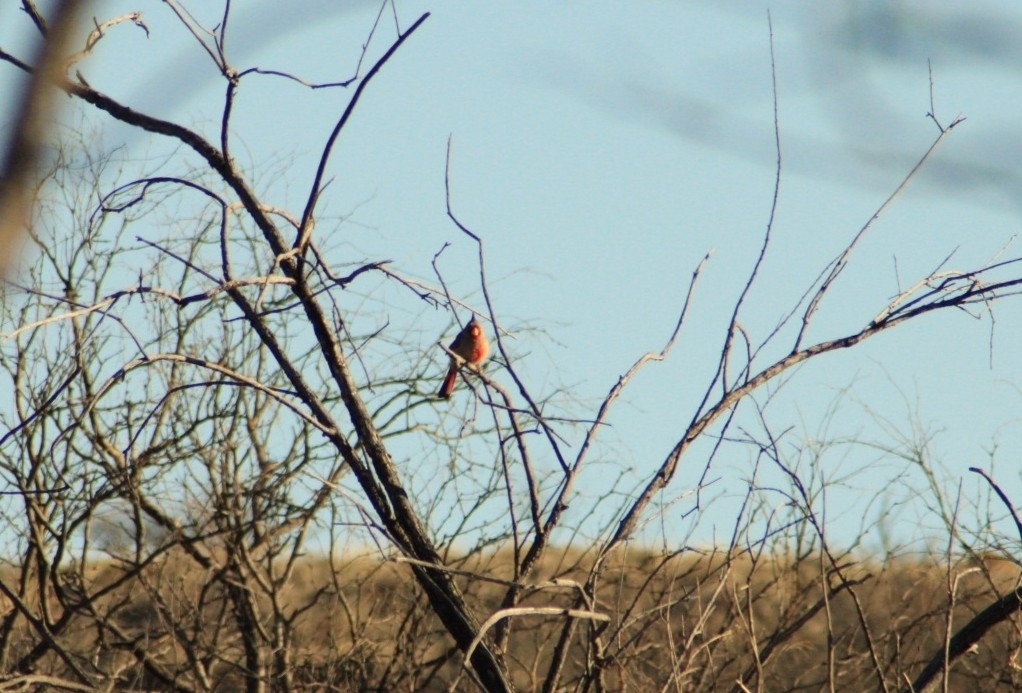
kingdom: Animalia
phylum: Chordata
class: Aves
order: Passeriformes
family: Cardinalidae
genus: Cardinalis
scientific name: Cardinalis sinuatus
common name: Pyrrhuloxia
